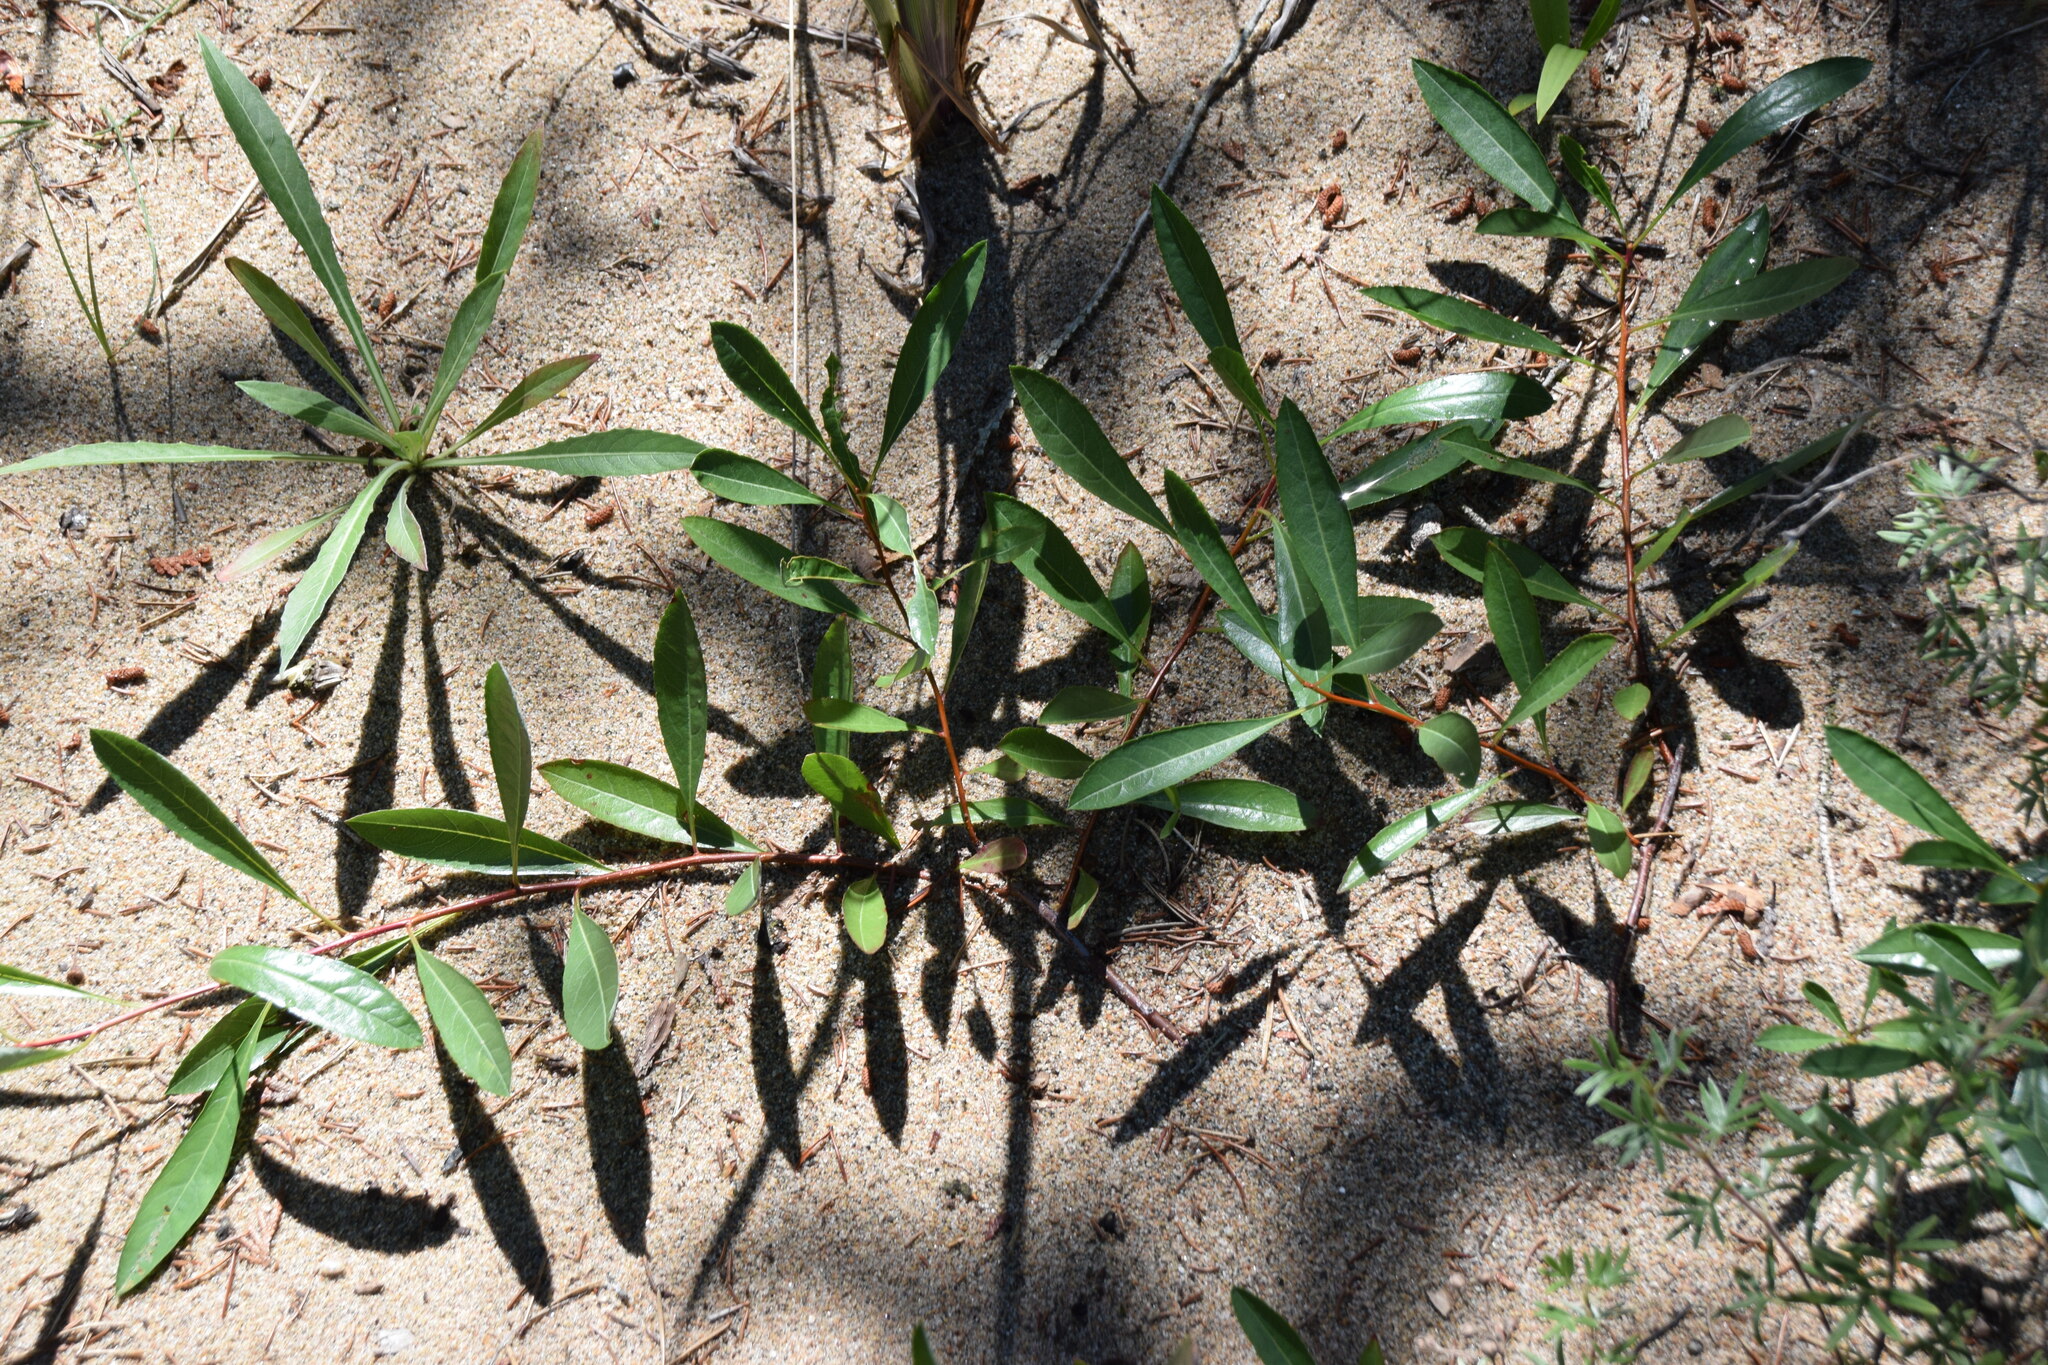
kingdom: Plantae
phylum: Tracheophyta
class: Magnoliopsida
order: Rosales
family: Rosaceae
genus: Prunus
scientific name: Prunus pumila
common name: Dwarf cherry
